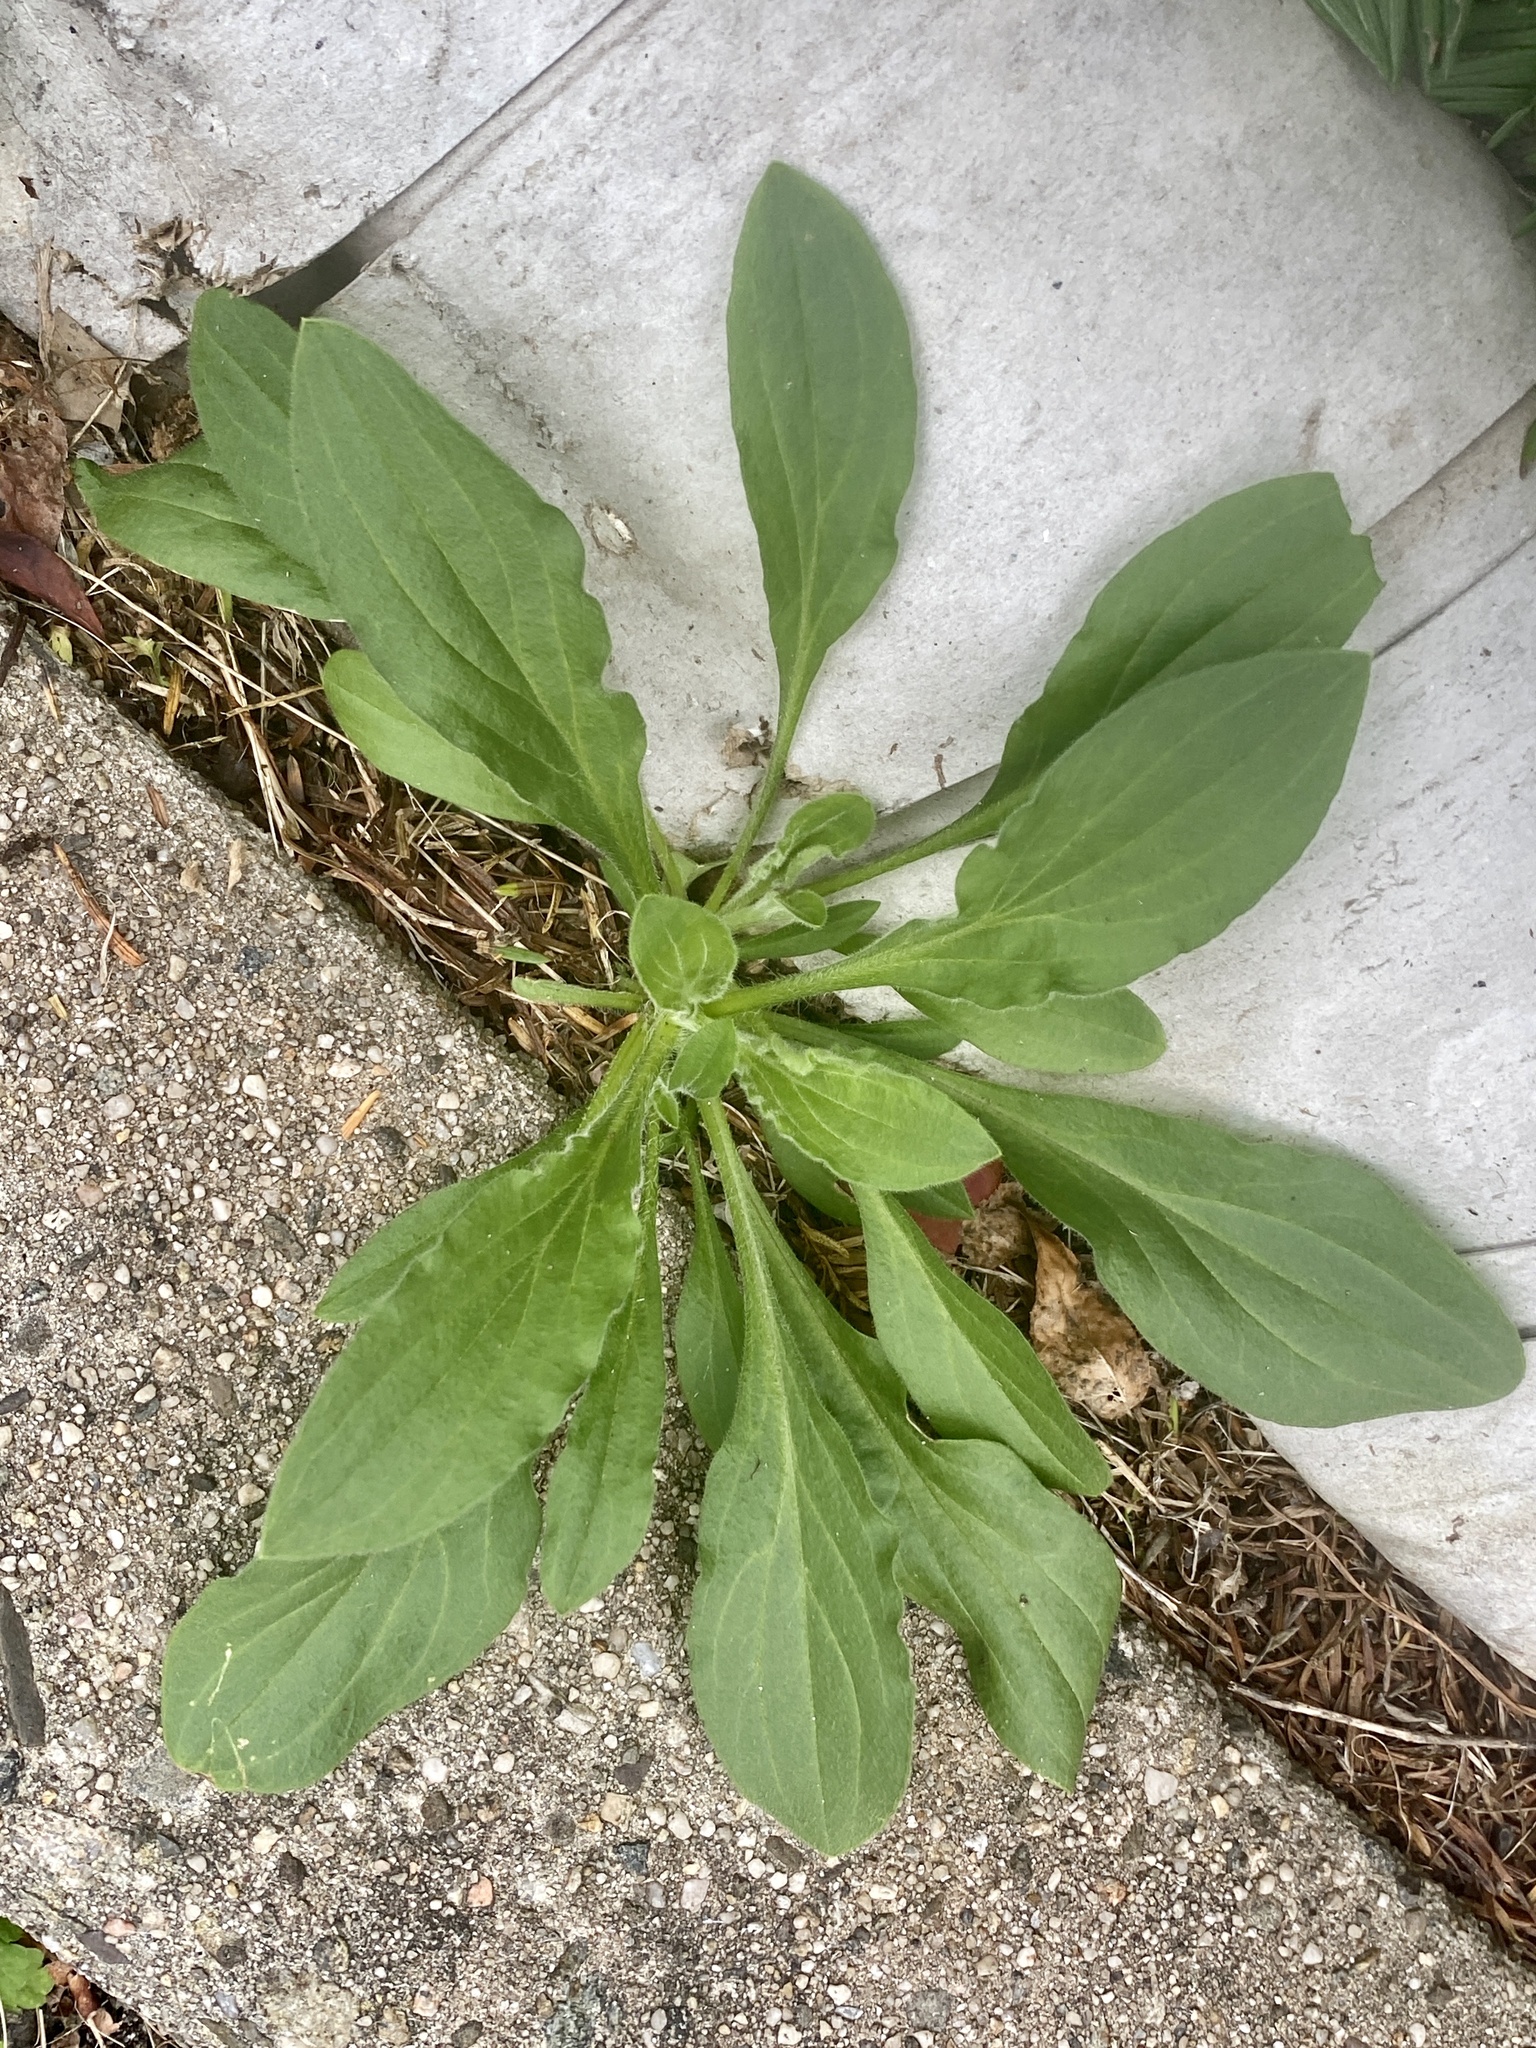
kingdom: Plantae
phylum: Tracheophyta
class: Magnoliopsida
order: Caryophyllales
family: Caryophyllaceae
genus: Silene
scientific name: Silene latifolia
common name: White campion
